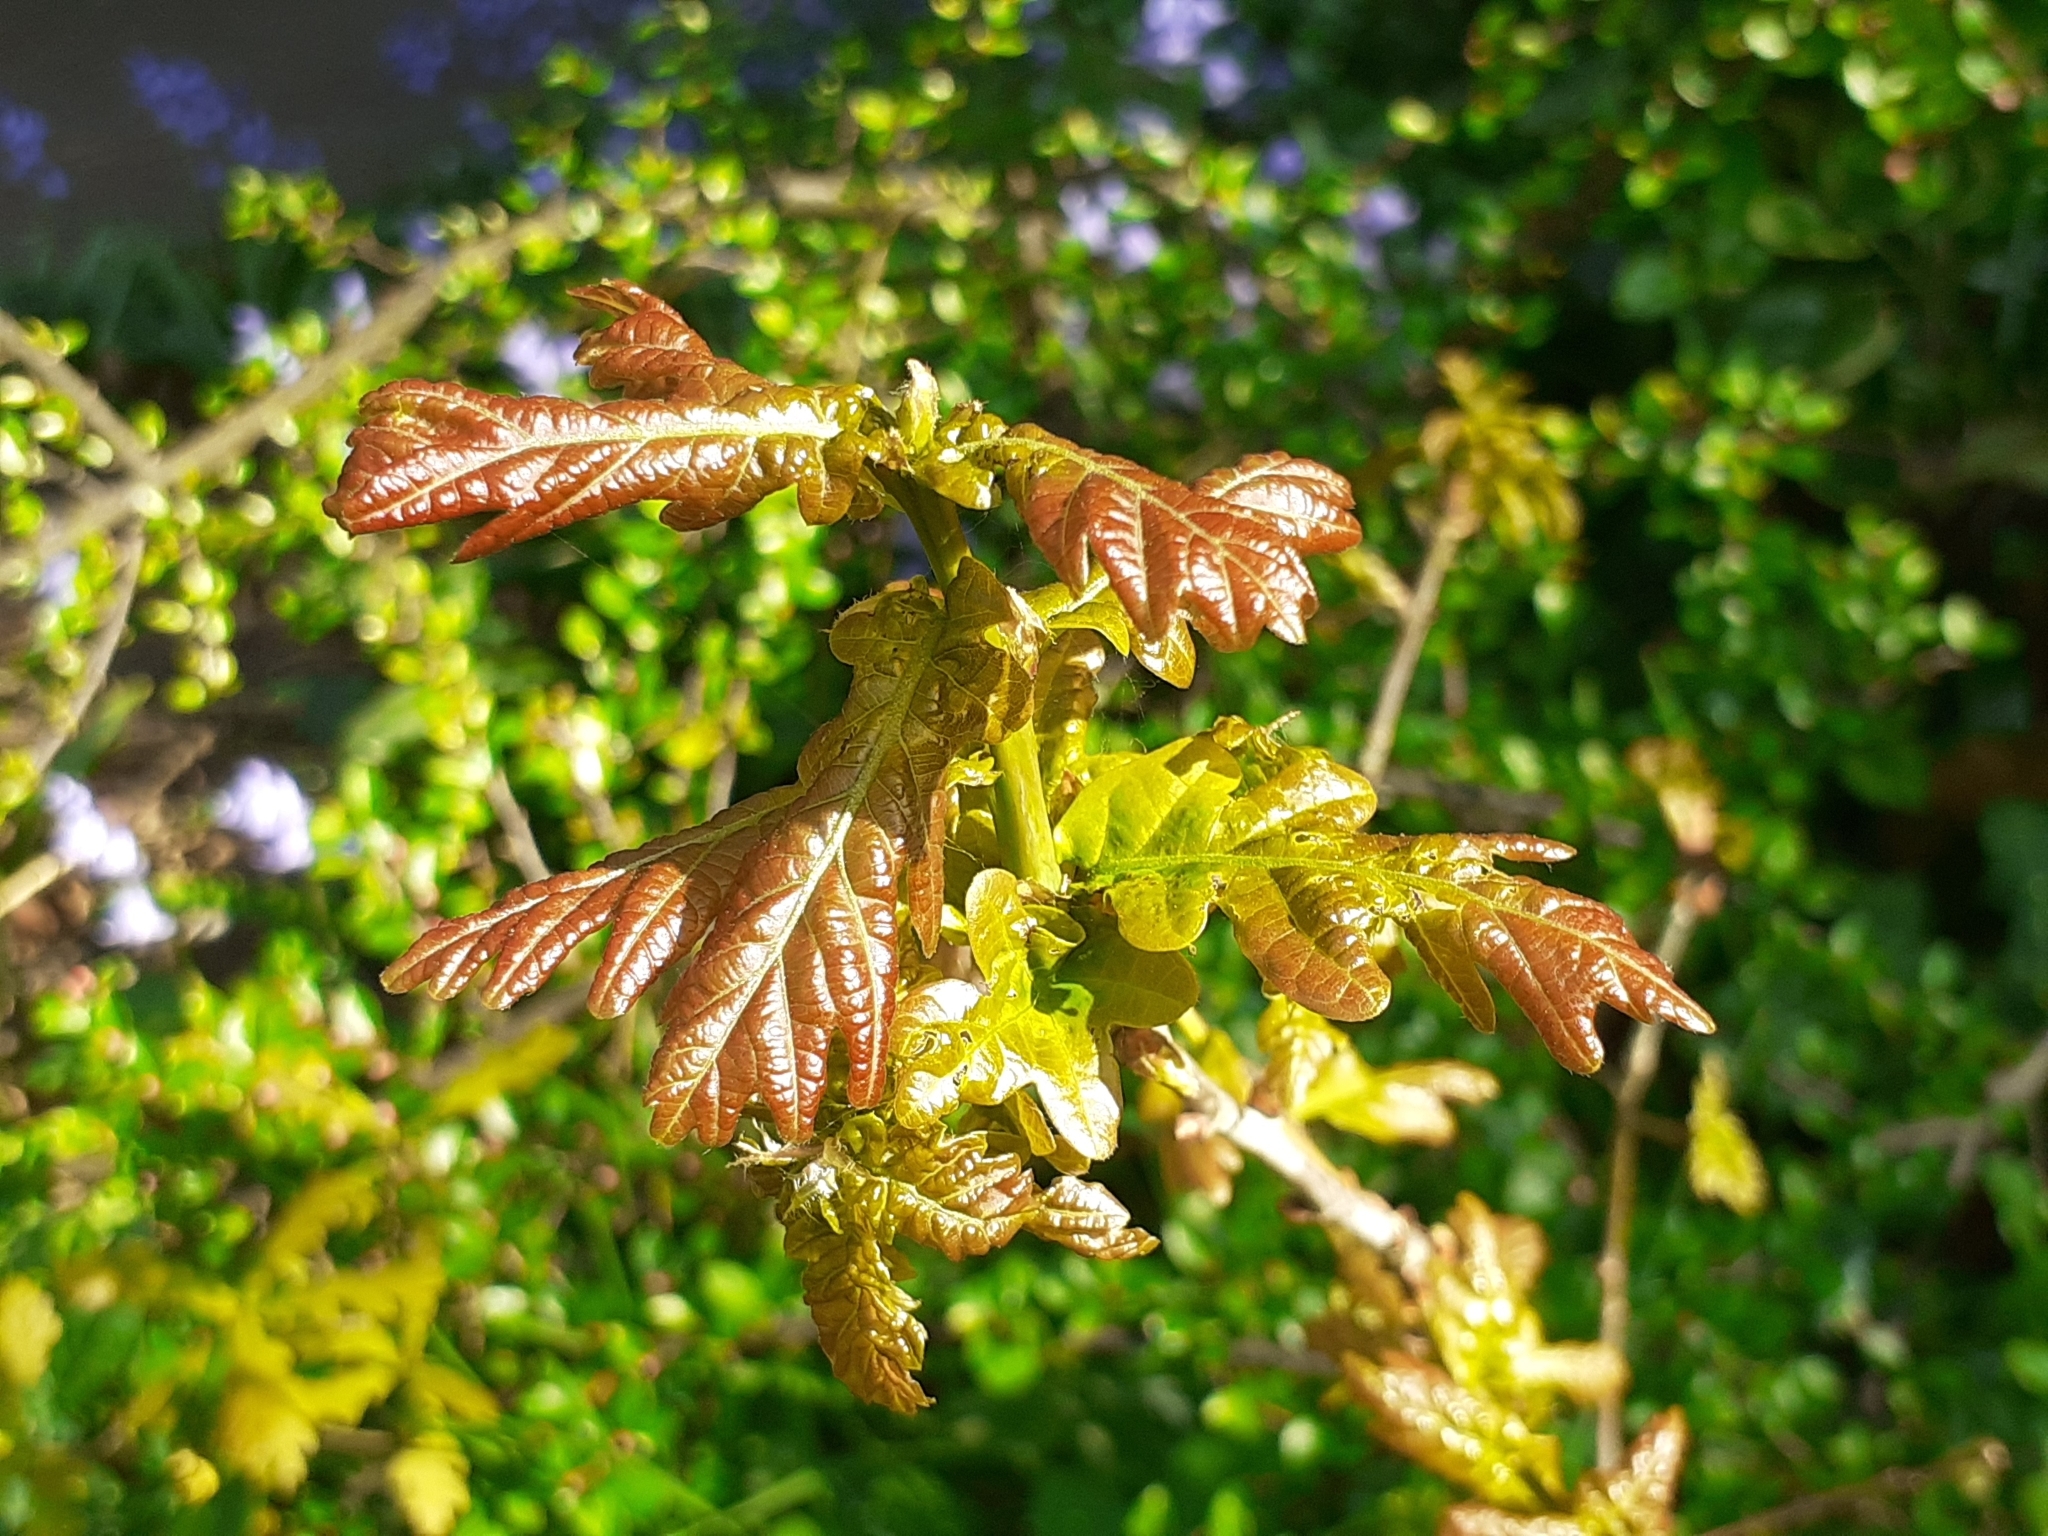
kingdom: Plantae
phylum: Tracheophyta
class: Magnoliopsida
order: Fagales
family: Fagaceae
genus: Quercus
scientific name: Quercus robur
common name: Pedunculate oak
